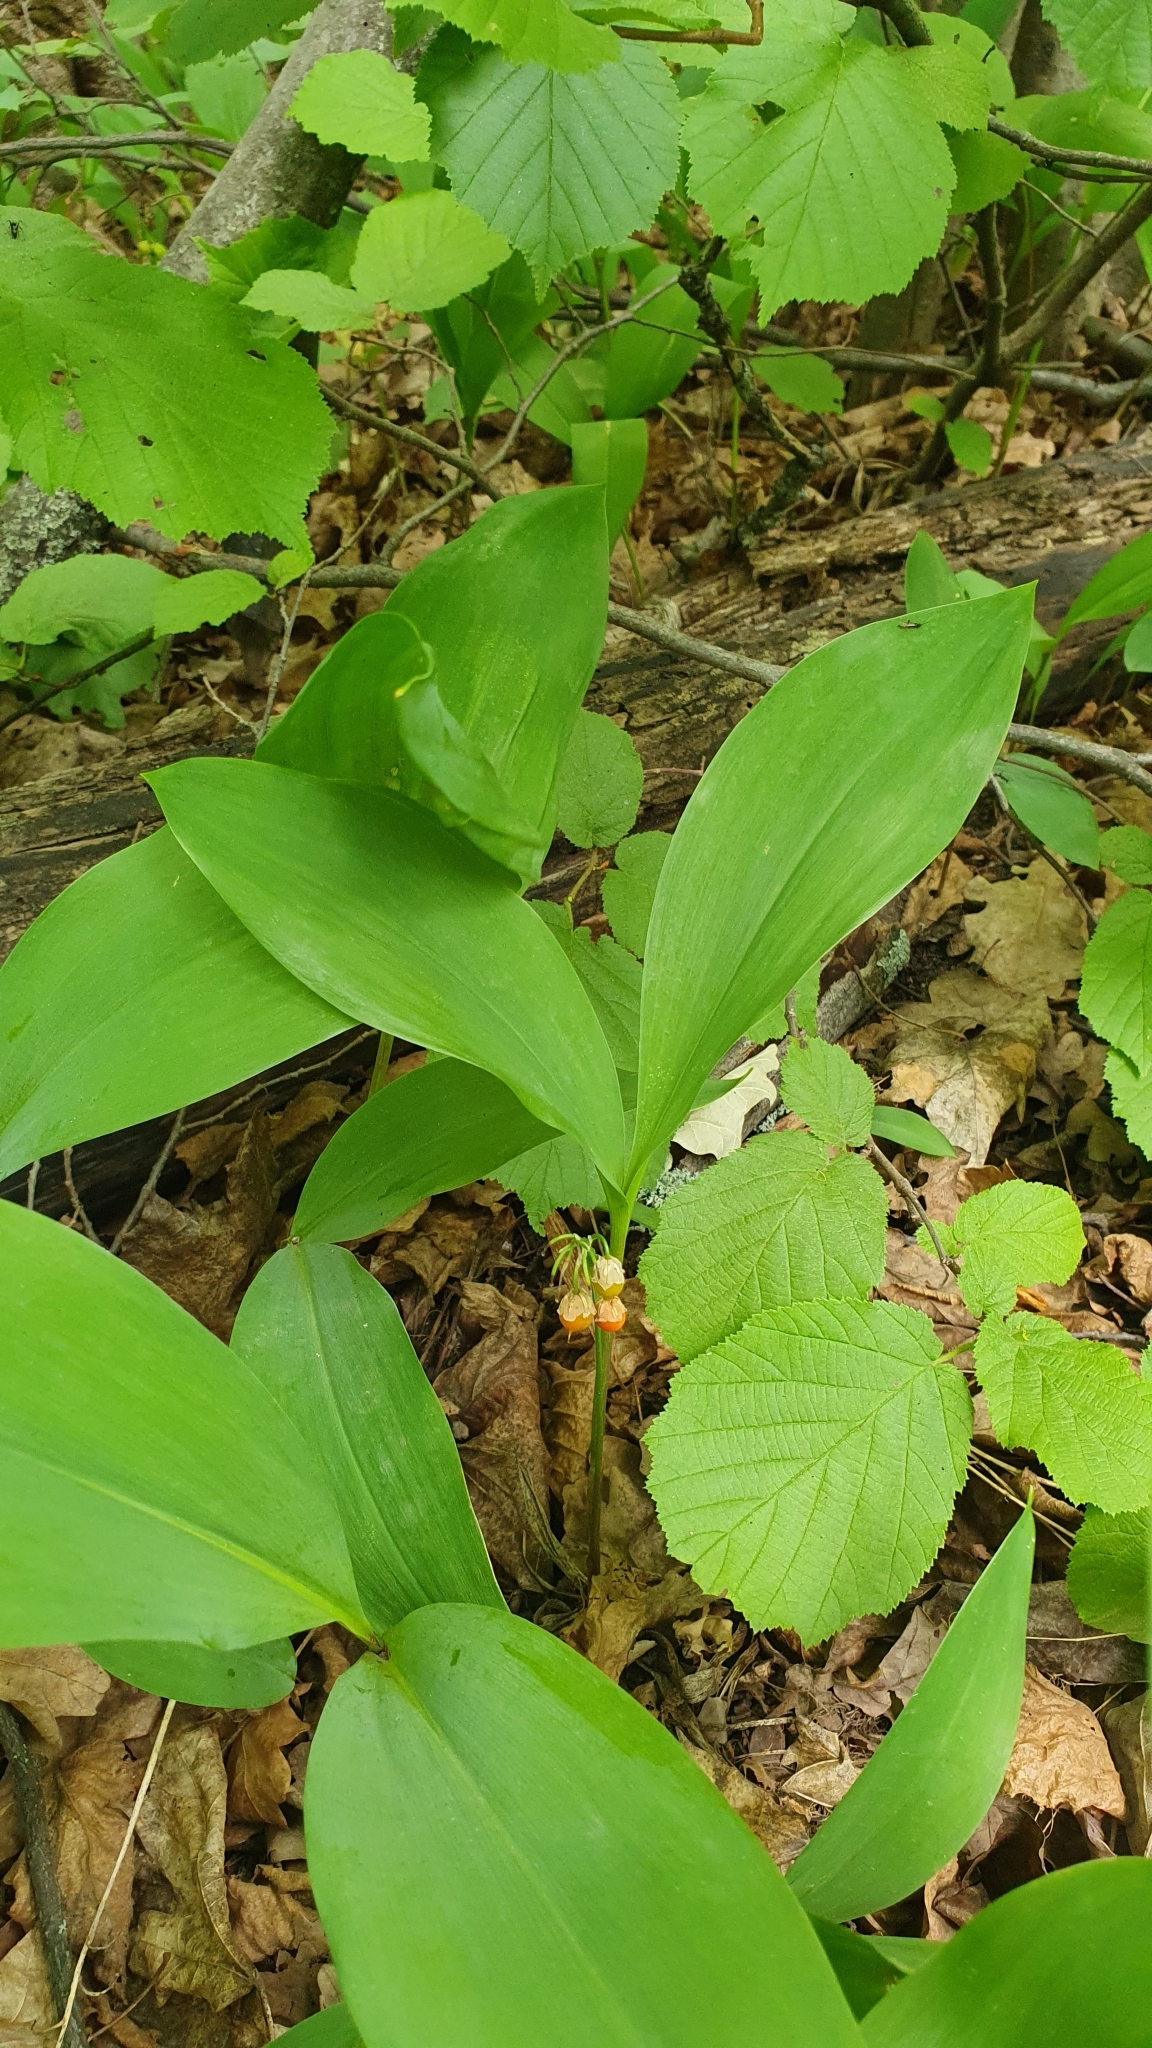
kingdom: Plantae
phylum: Tracheophyta
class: Liliopsida
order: Asparagales
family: Asparagaceae
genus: Convallaria
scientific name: Convallaria majalis
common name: Lily-of-the-valley
